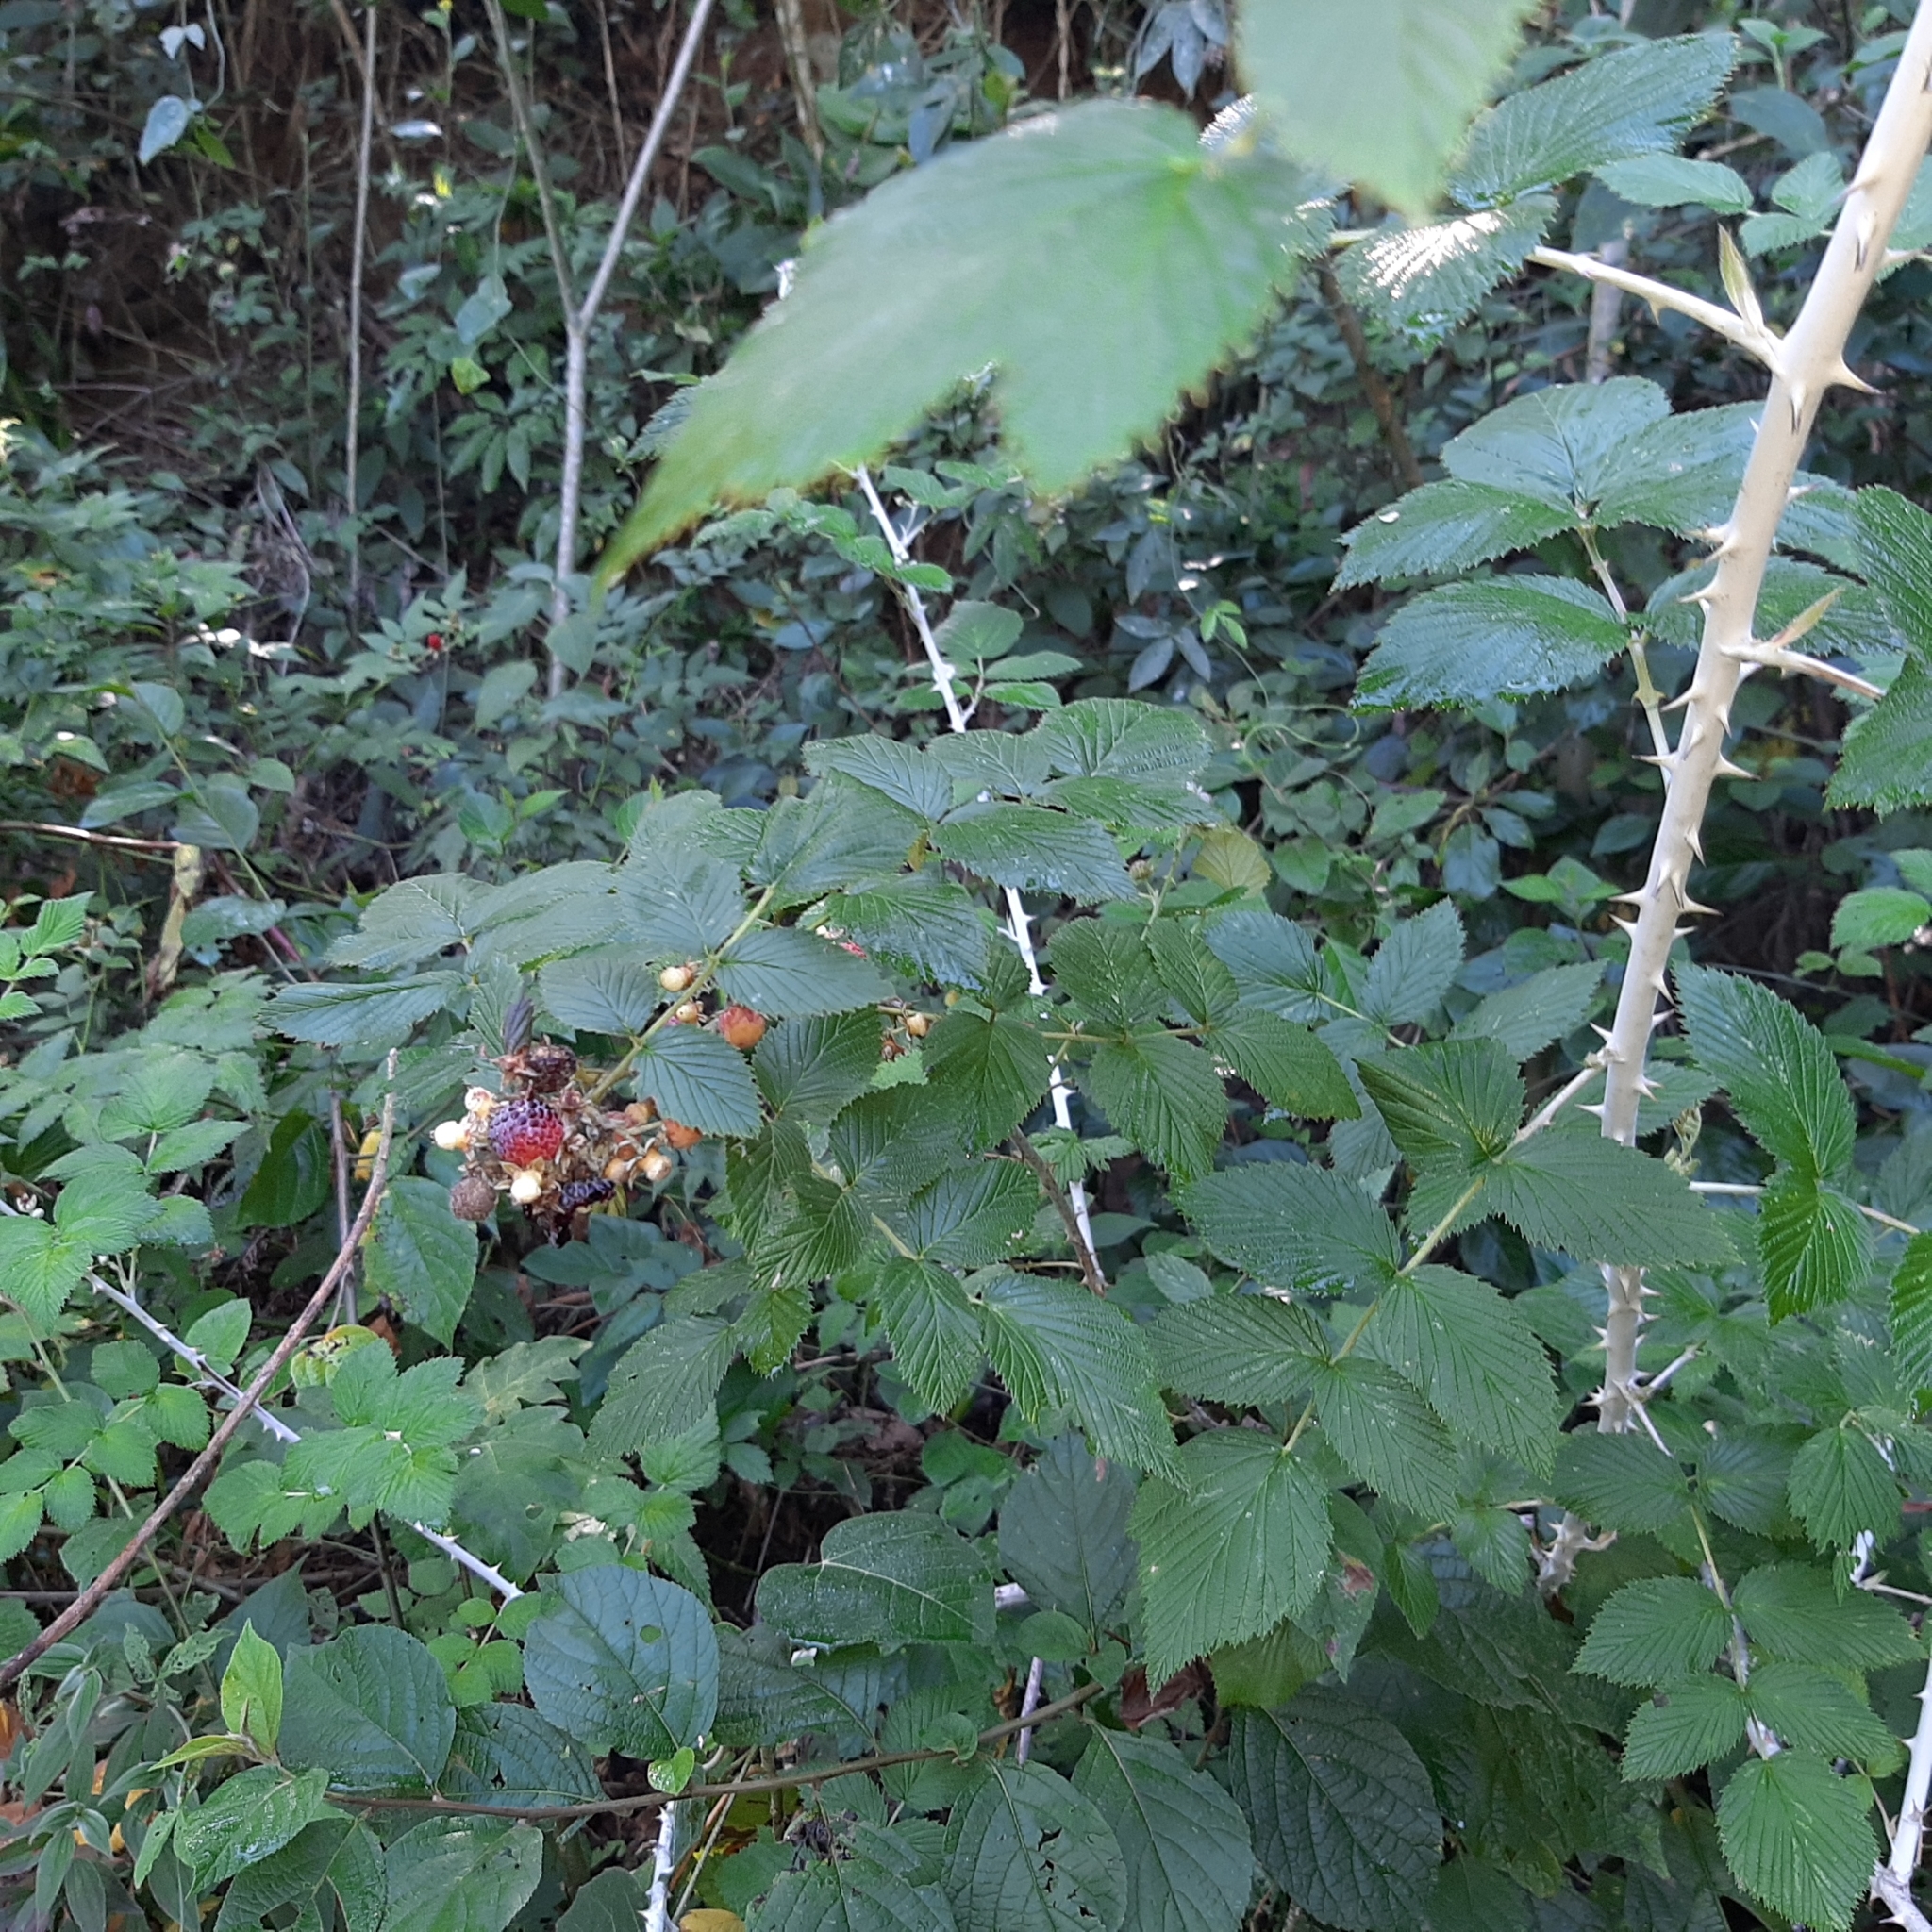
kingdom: Plantae
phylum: Tracheophyta
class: Magnoliopsida
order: Rosales
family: Rosaceae
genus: Rubus
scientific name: Rubus niveus
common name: Snowpeaks raspberry
